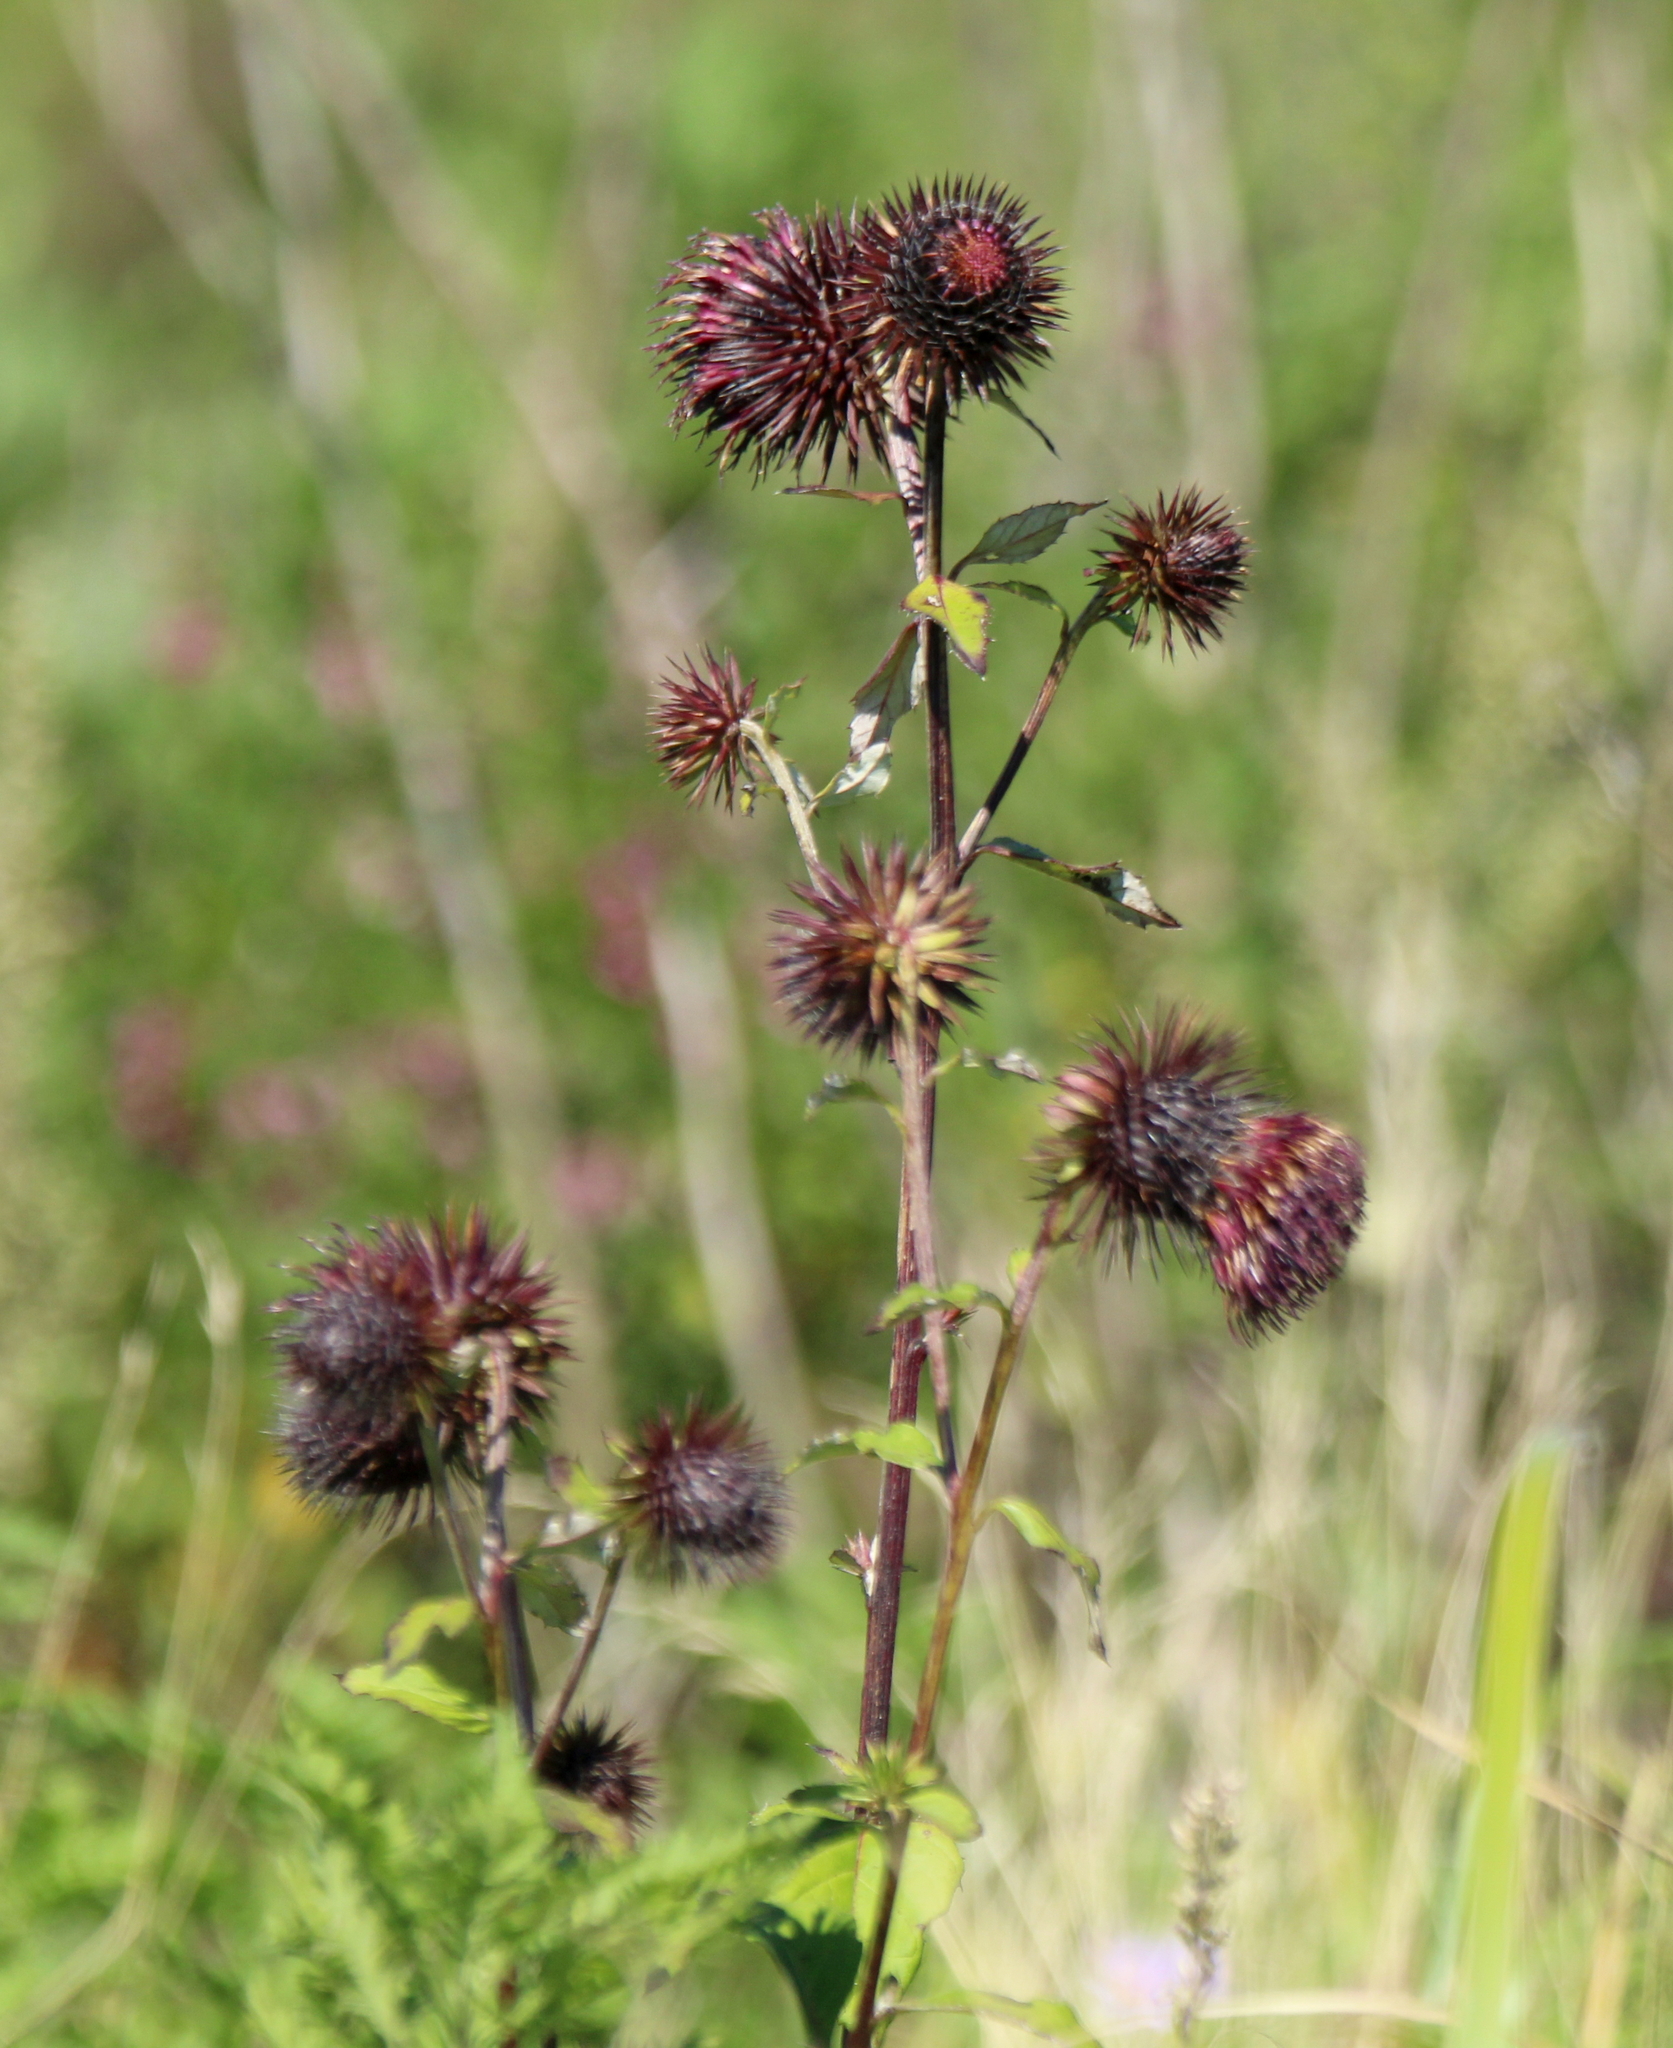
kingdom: Plantae
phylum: Tracheophyta
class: Magnoliopsida
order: Asterales
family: Asteraceae
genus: Synurus
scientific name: Synurus deltoides
